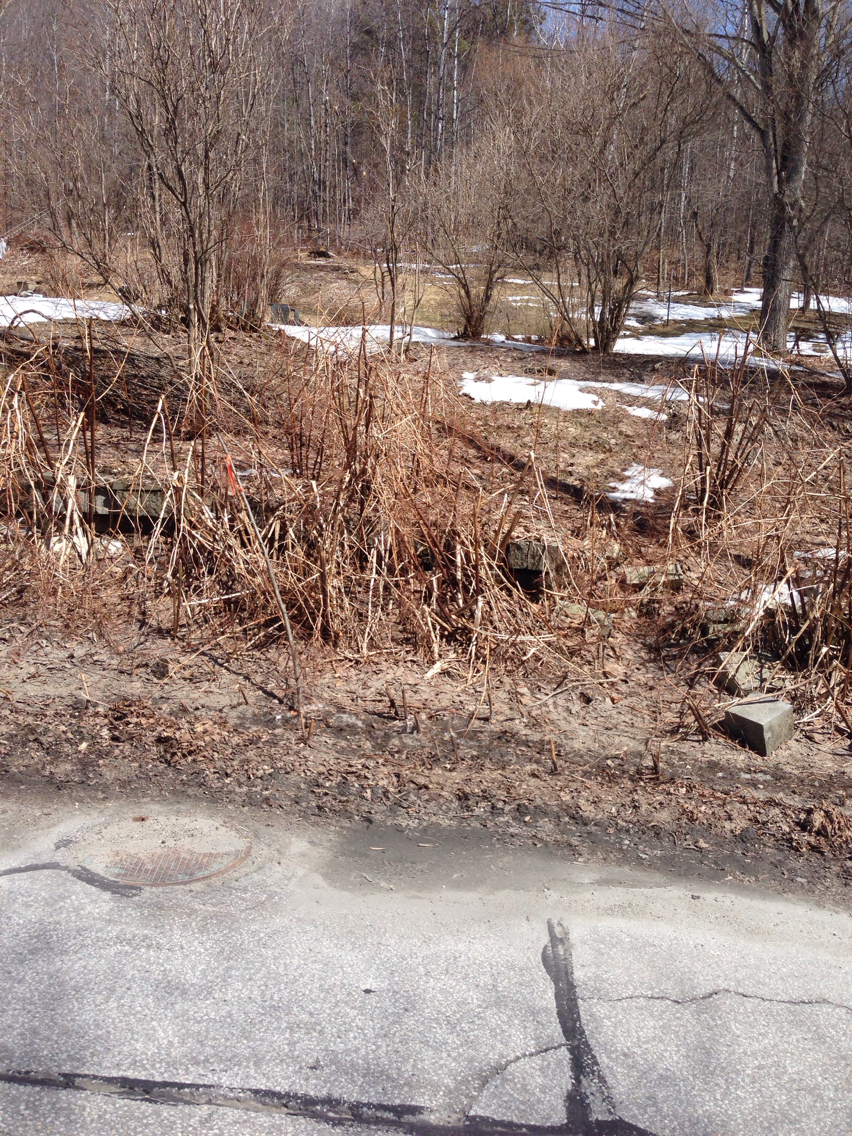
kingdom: Plantae
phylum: Tracheophyta
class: Magnoliopsida
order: Caryophyllales
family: Polygonaceae
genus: Reynoutria
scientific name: Reynoutria japonica
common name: Japanese knotweed
